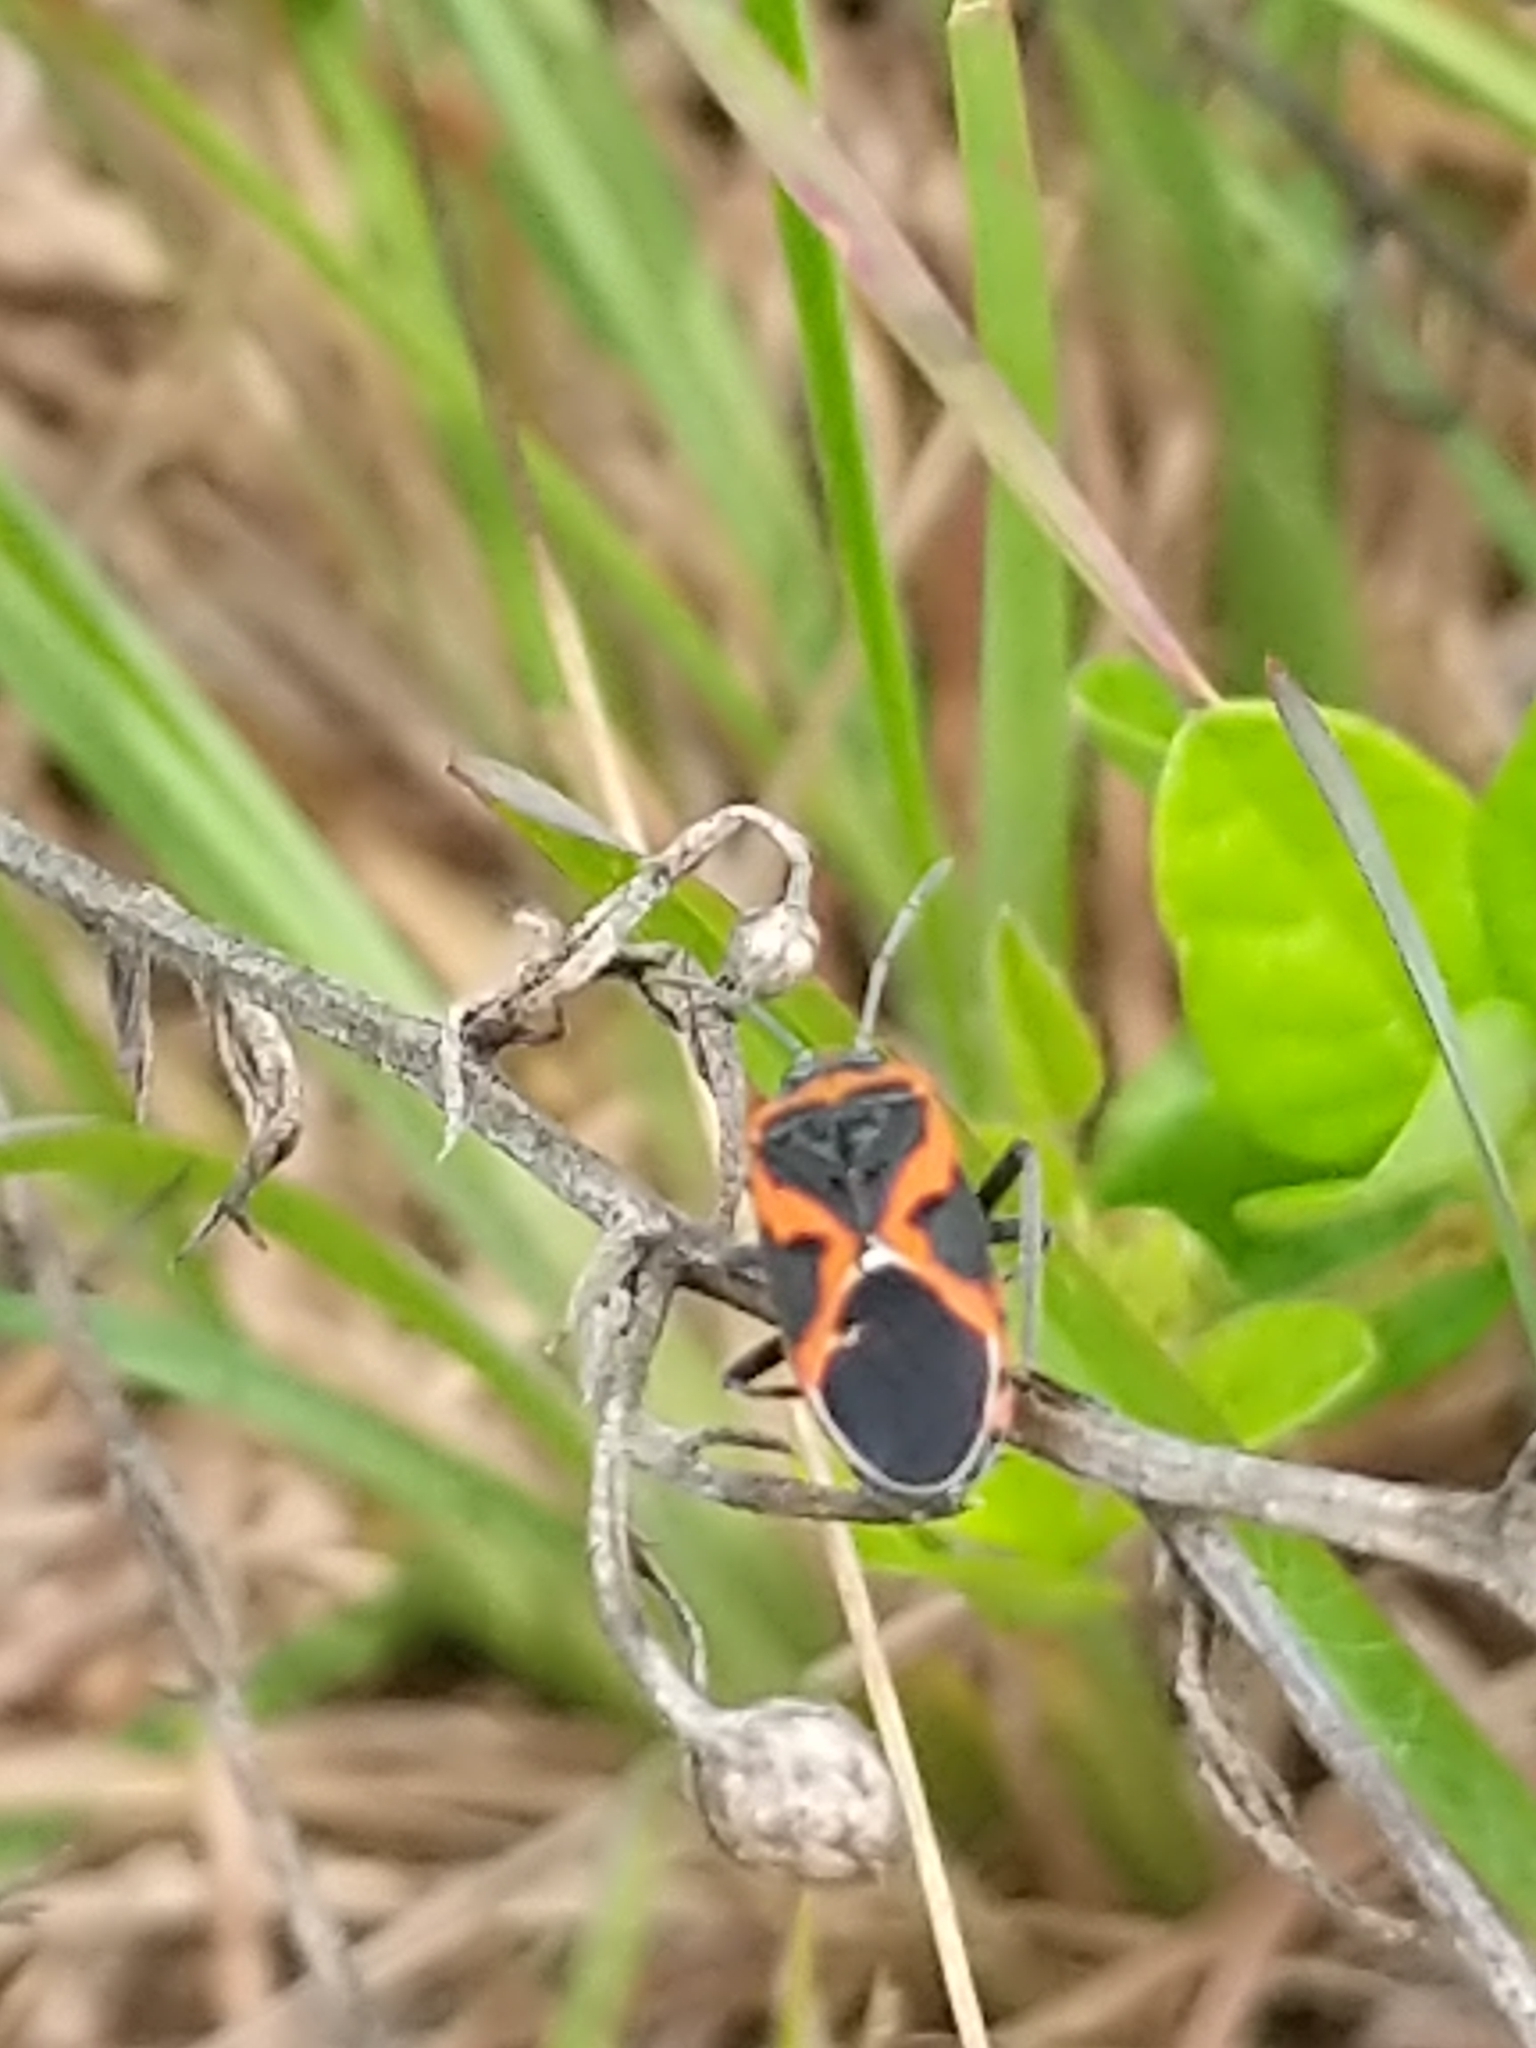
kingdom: Animalia
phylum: Arthropoda
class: Insecta
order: Hemiptera
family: Lygaeidae
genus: Lygaeus
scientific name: Lygaeus kalmii
